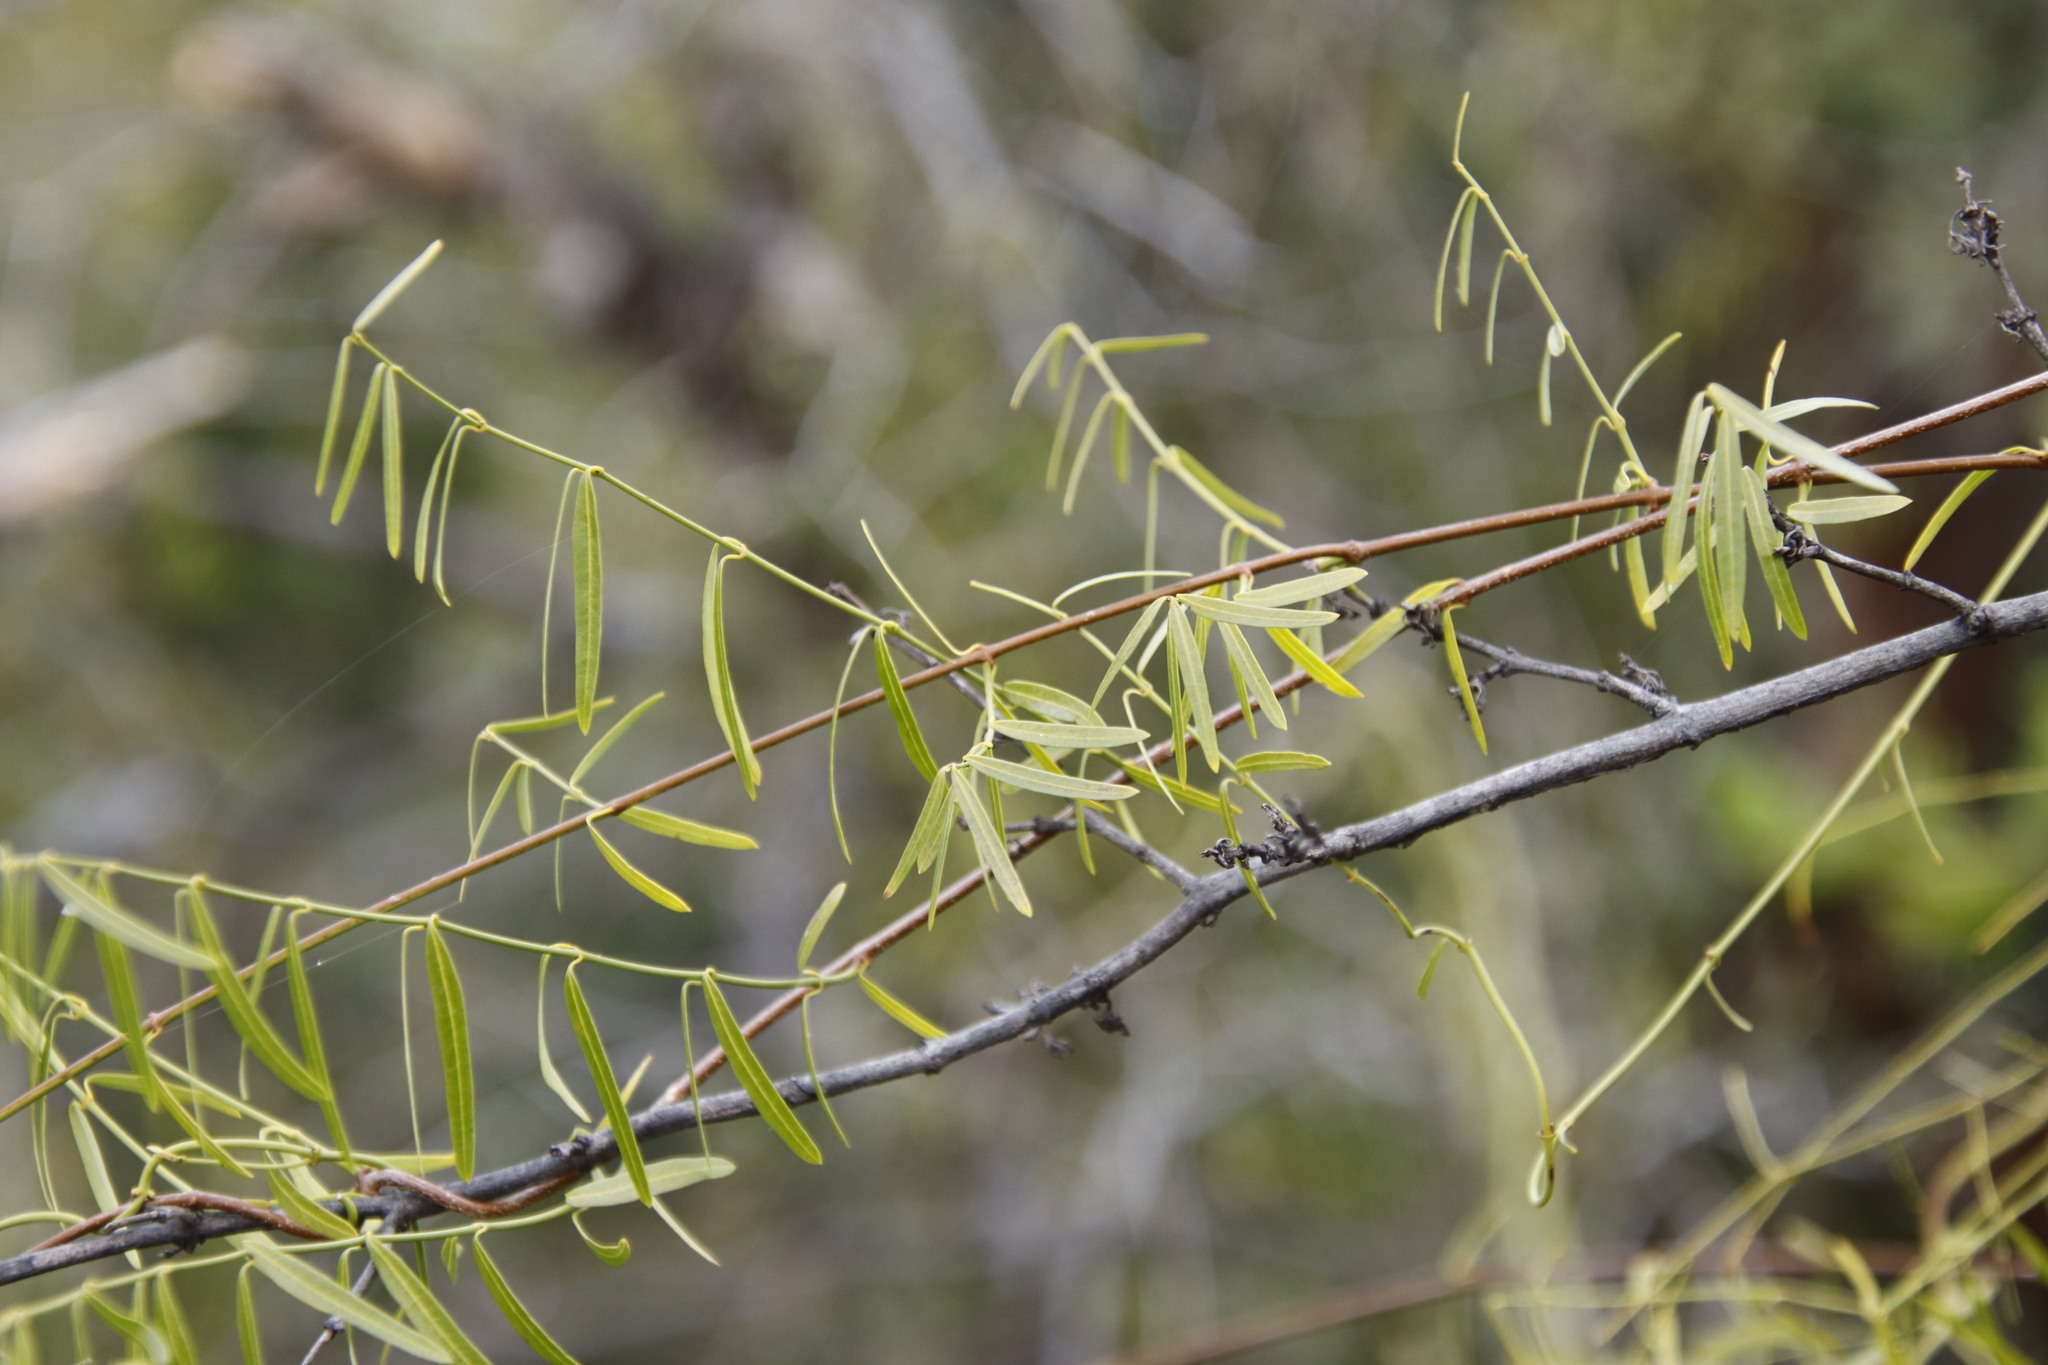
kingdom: Plantae
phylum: Tracheophyta
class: Magnoliopsida
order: Gentianales
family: Apocynaceae
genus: Secamone
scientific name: Secamone filiformis
